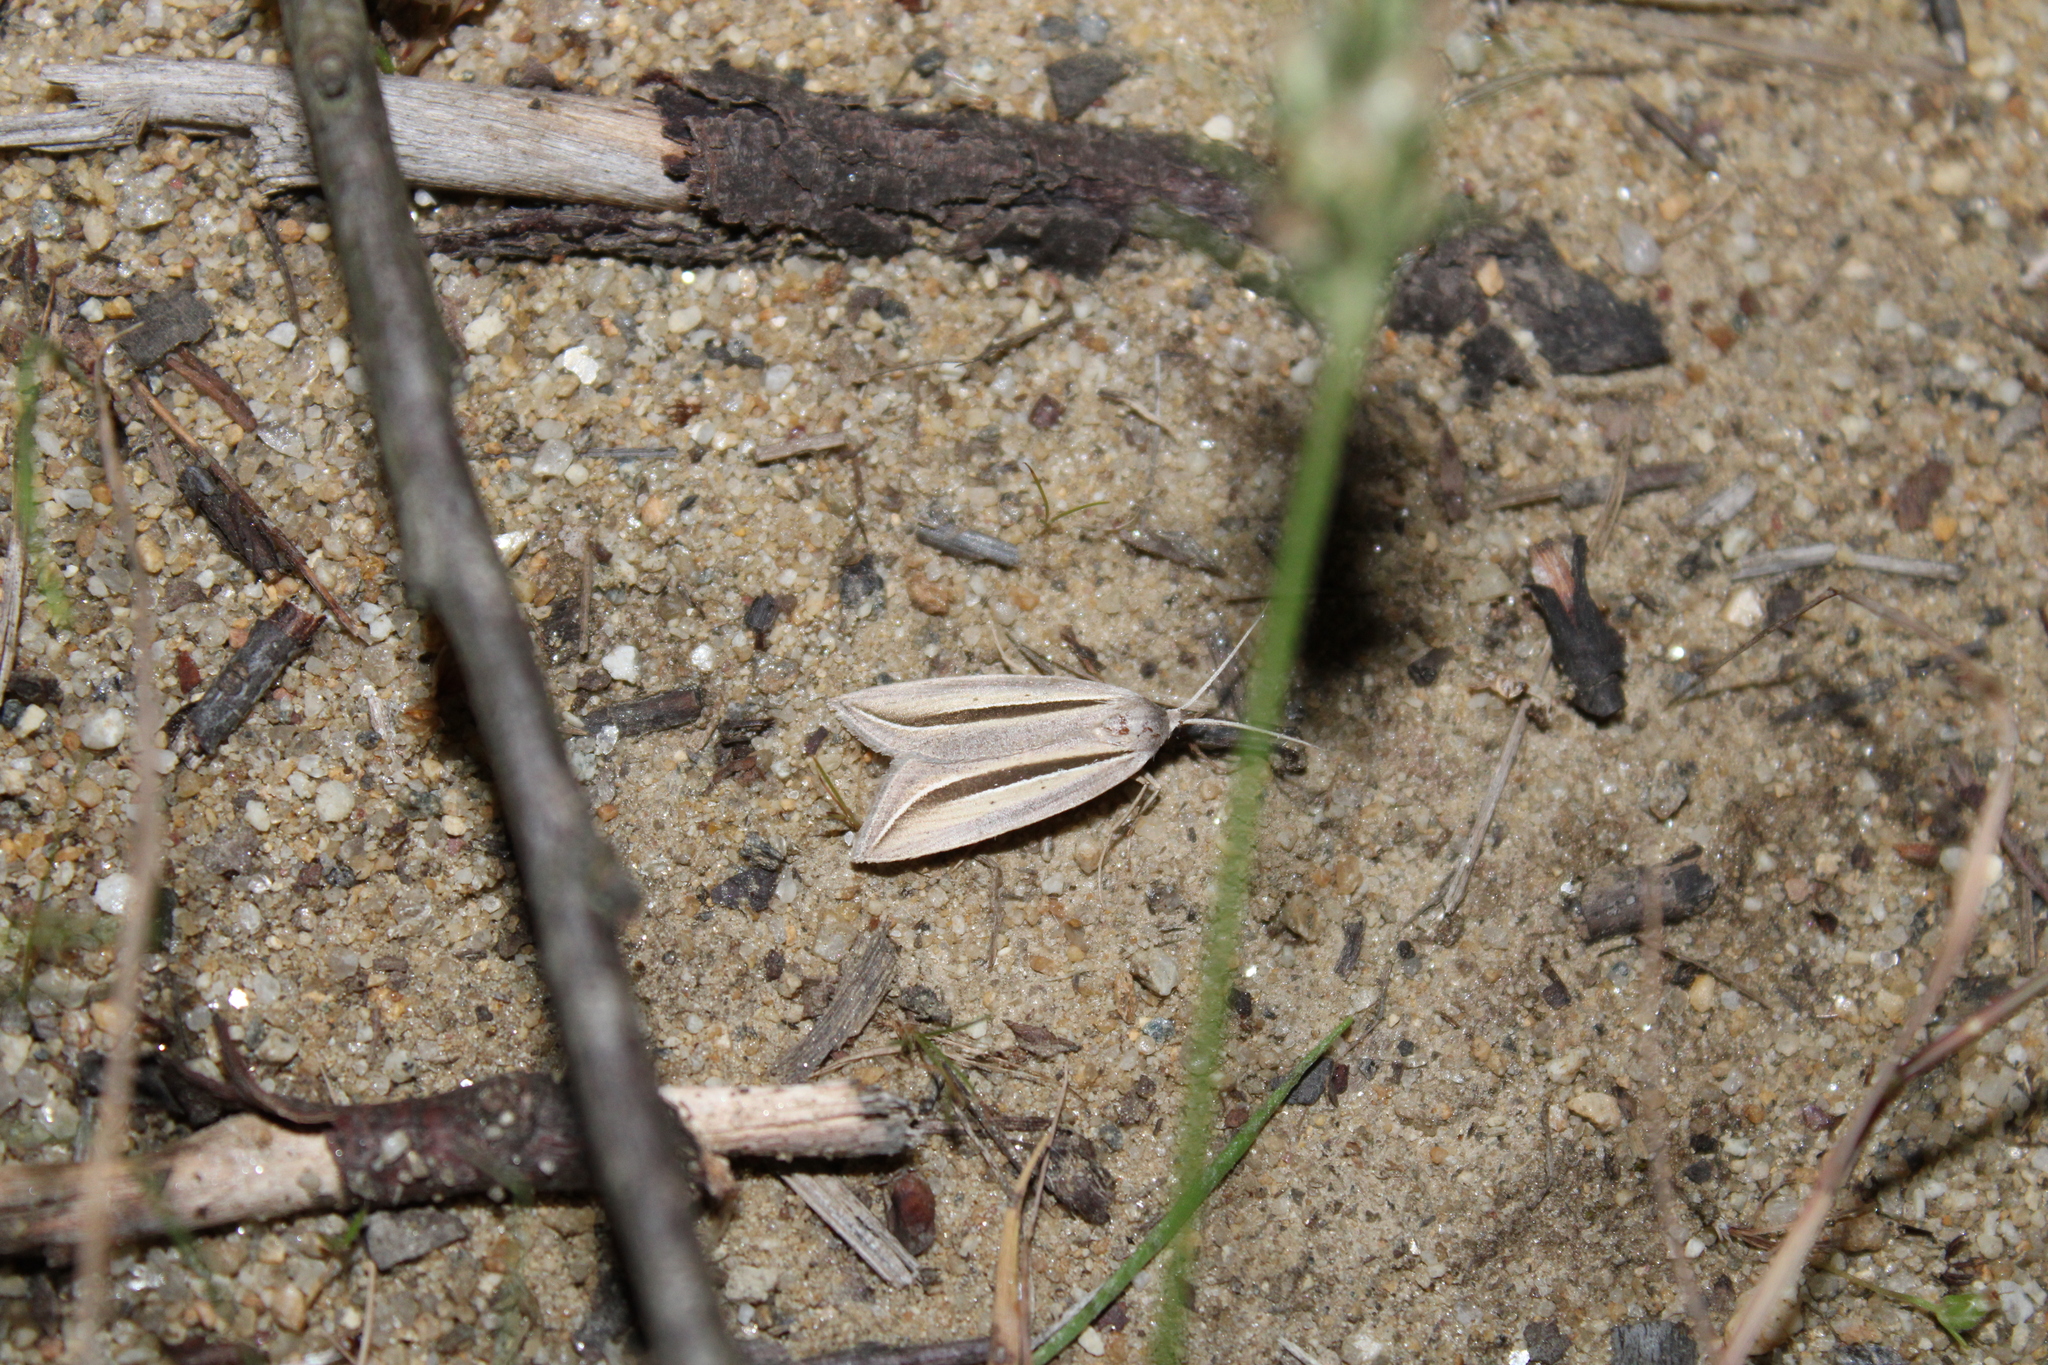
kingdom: Animalia
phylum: Arthropoda
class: Insecta
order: Lepidoptera
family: Erebidae
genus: Doryodes
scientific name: Doryodes spadaria
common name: Dull doryodes moth
